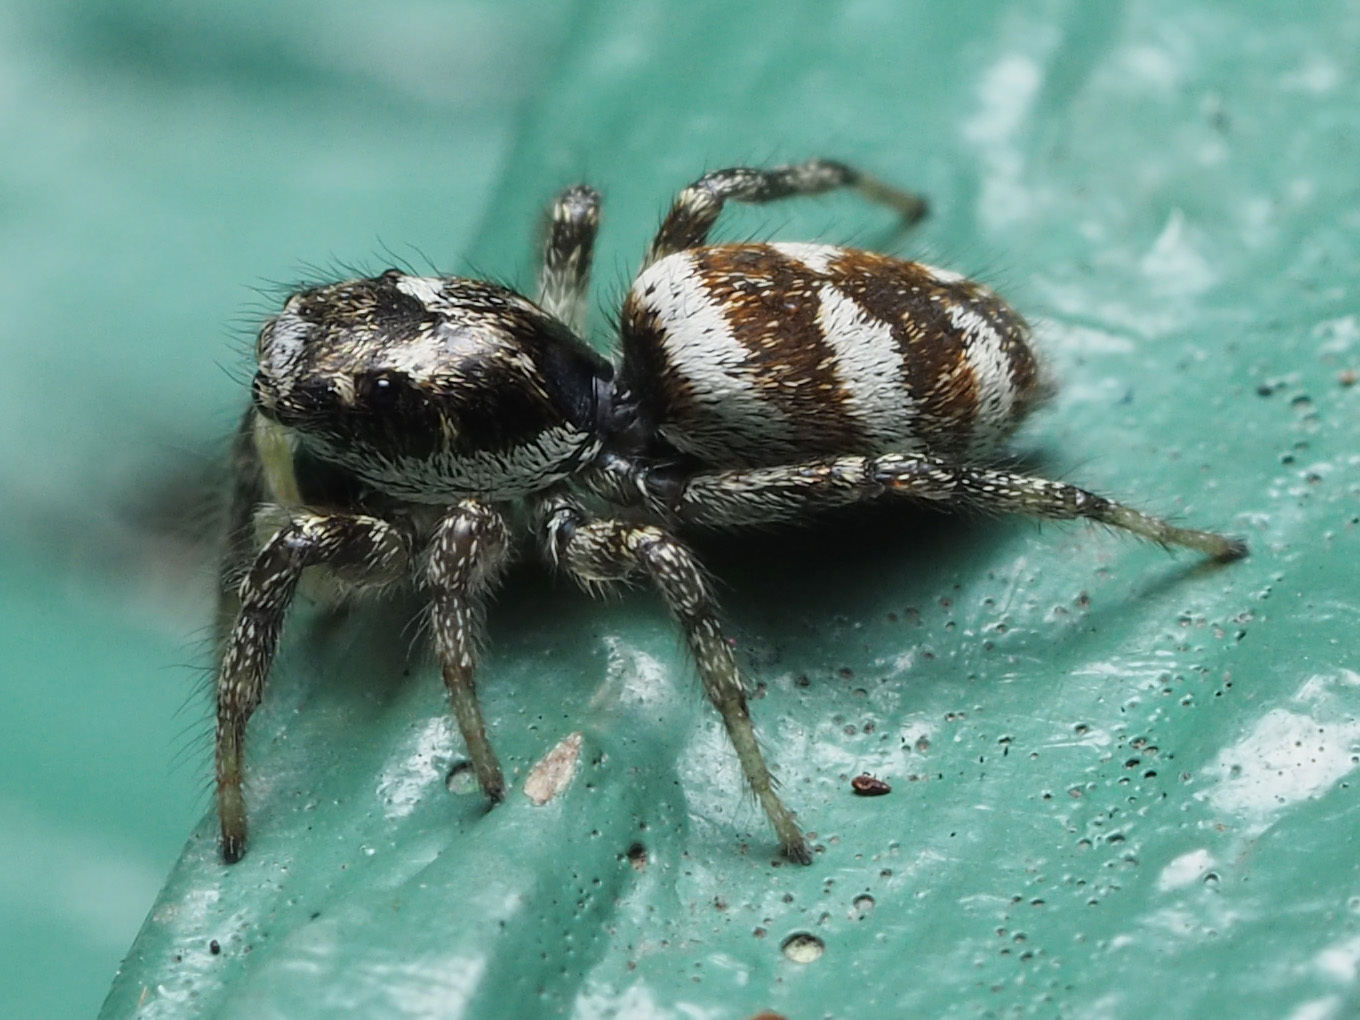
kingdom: Animalia
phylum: Arthropoda
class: Arachnida
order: Araneae
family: Salticidae
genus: Salticus
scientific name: Salticus scenicus
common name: Zebra jumper
